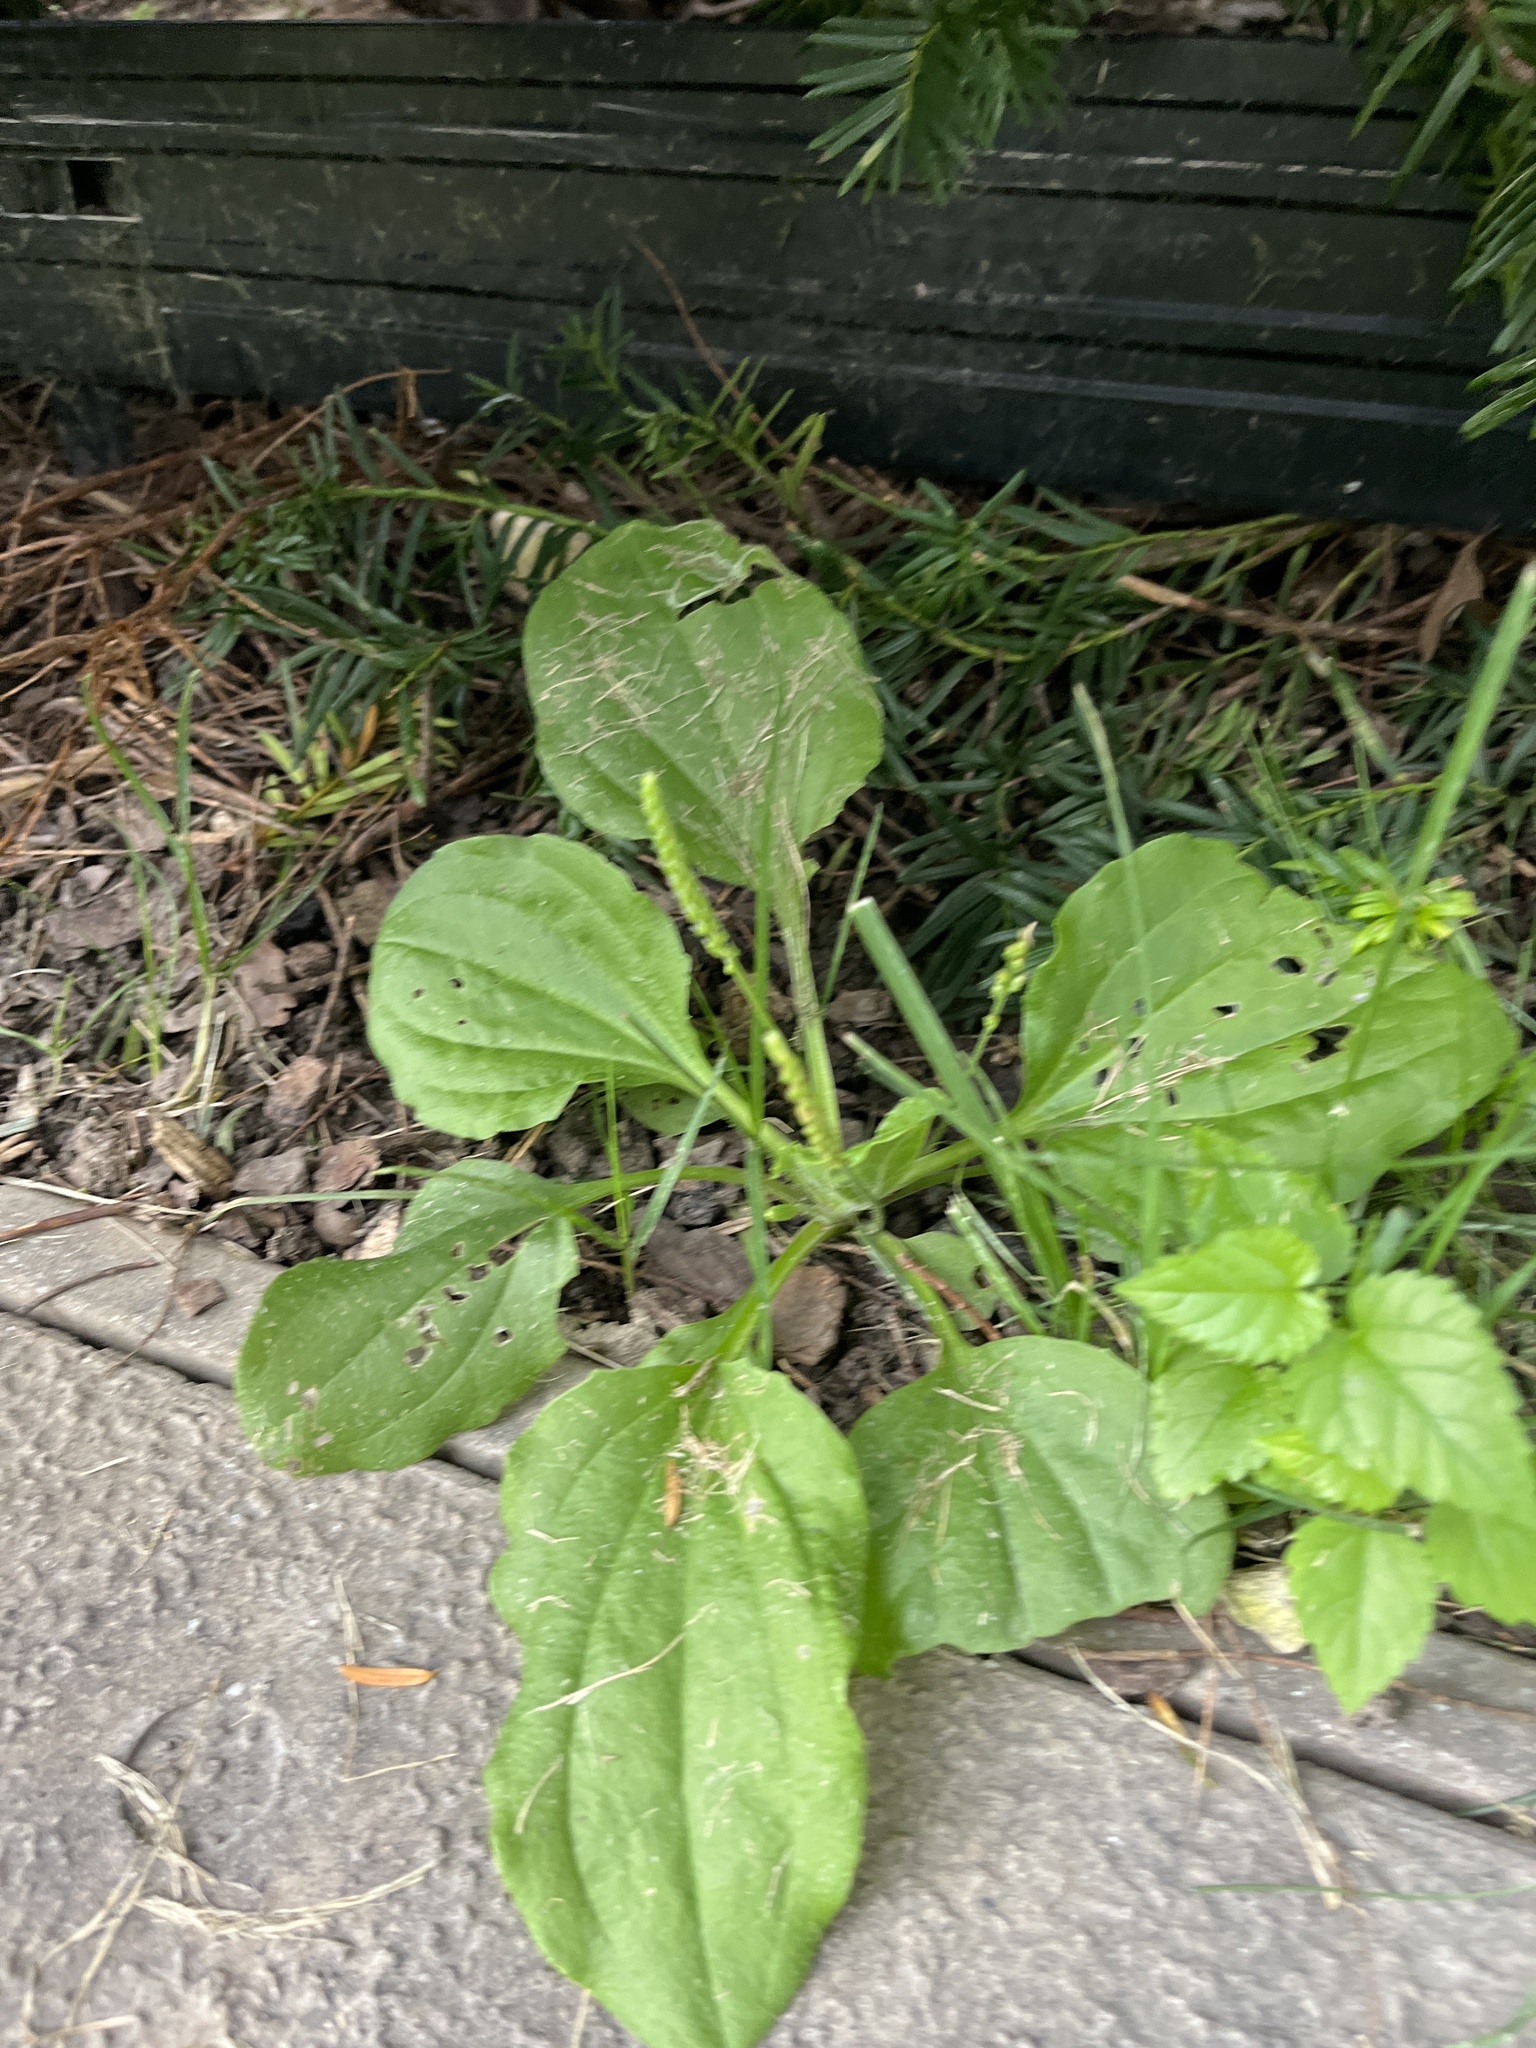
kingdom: Plantae
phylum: Tracheophyta
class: Magnoliopsida
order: Lamiales
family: Plantaginaceae
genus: Plantago
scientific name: Plantago major
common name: Common plantain
